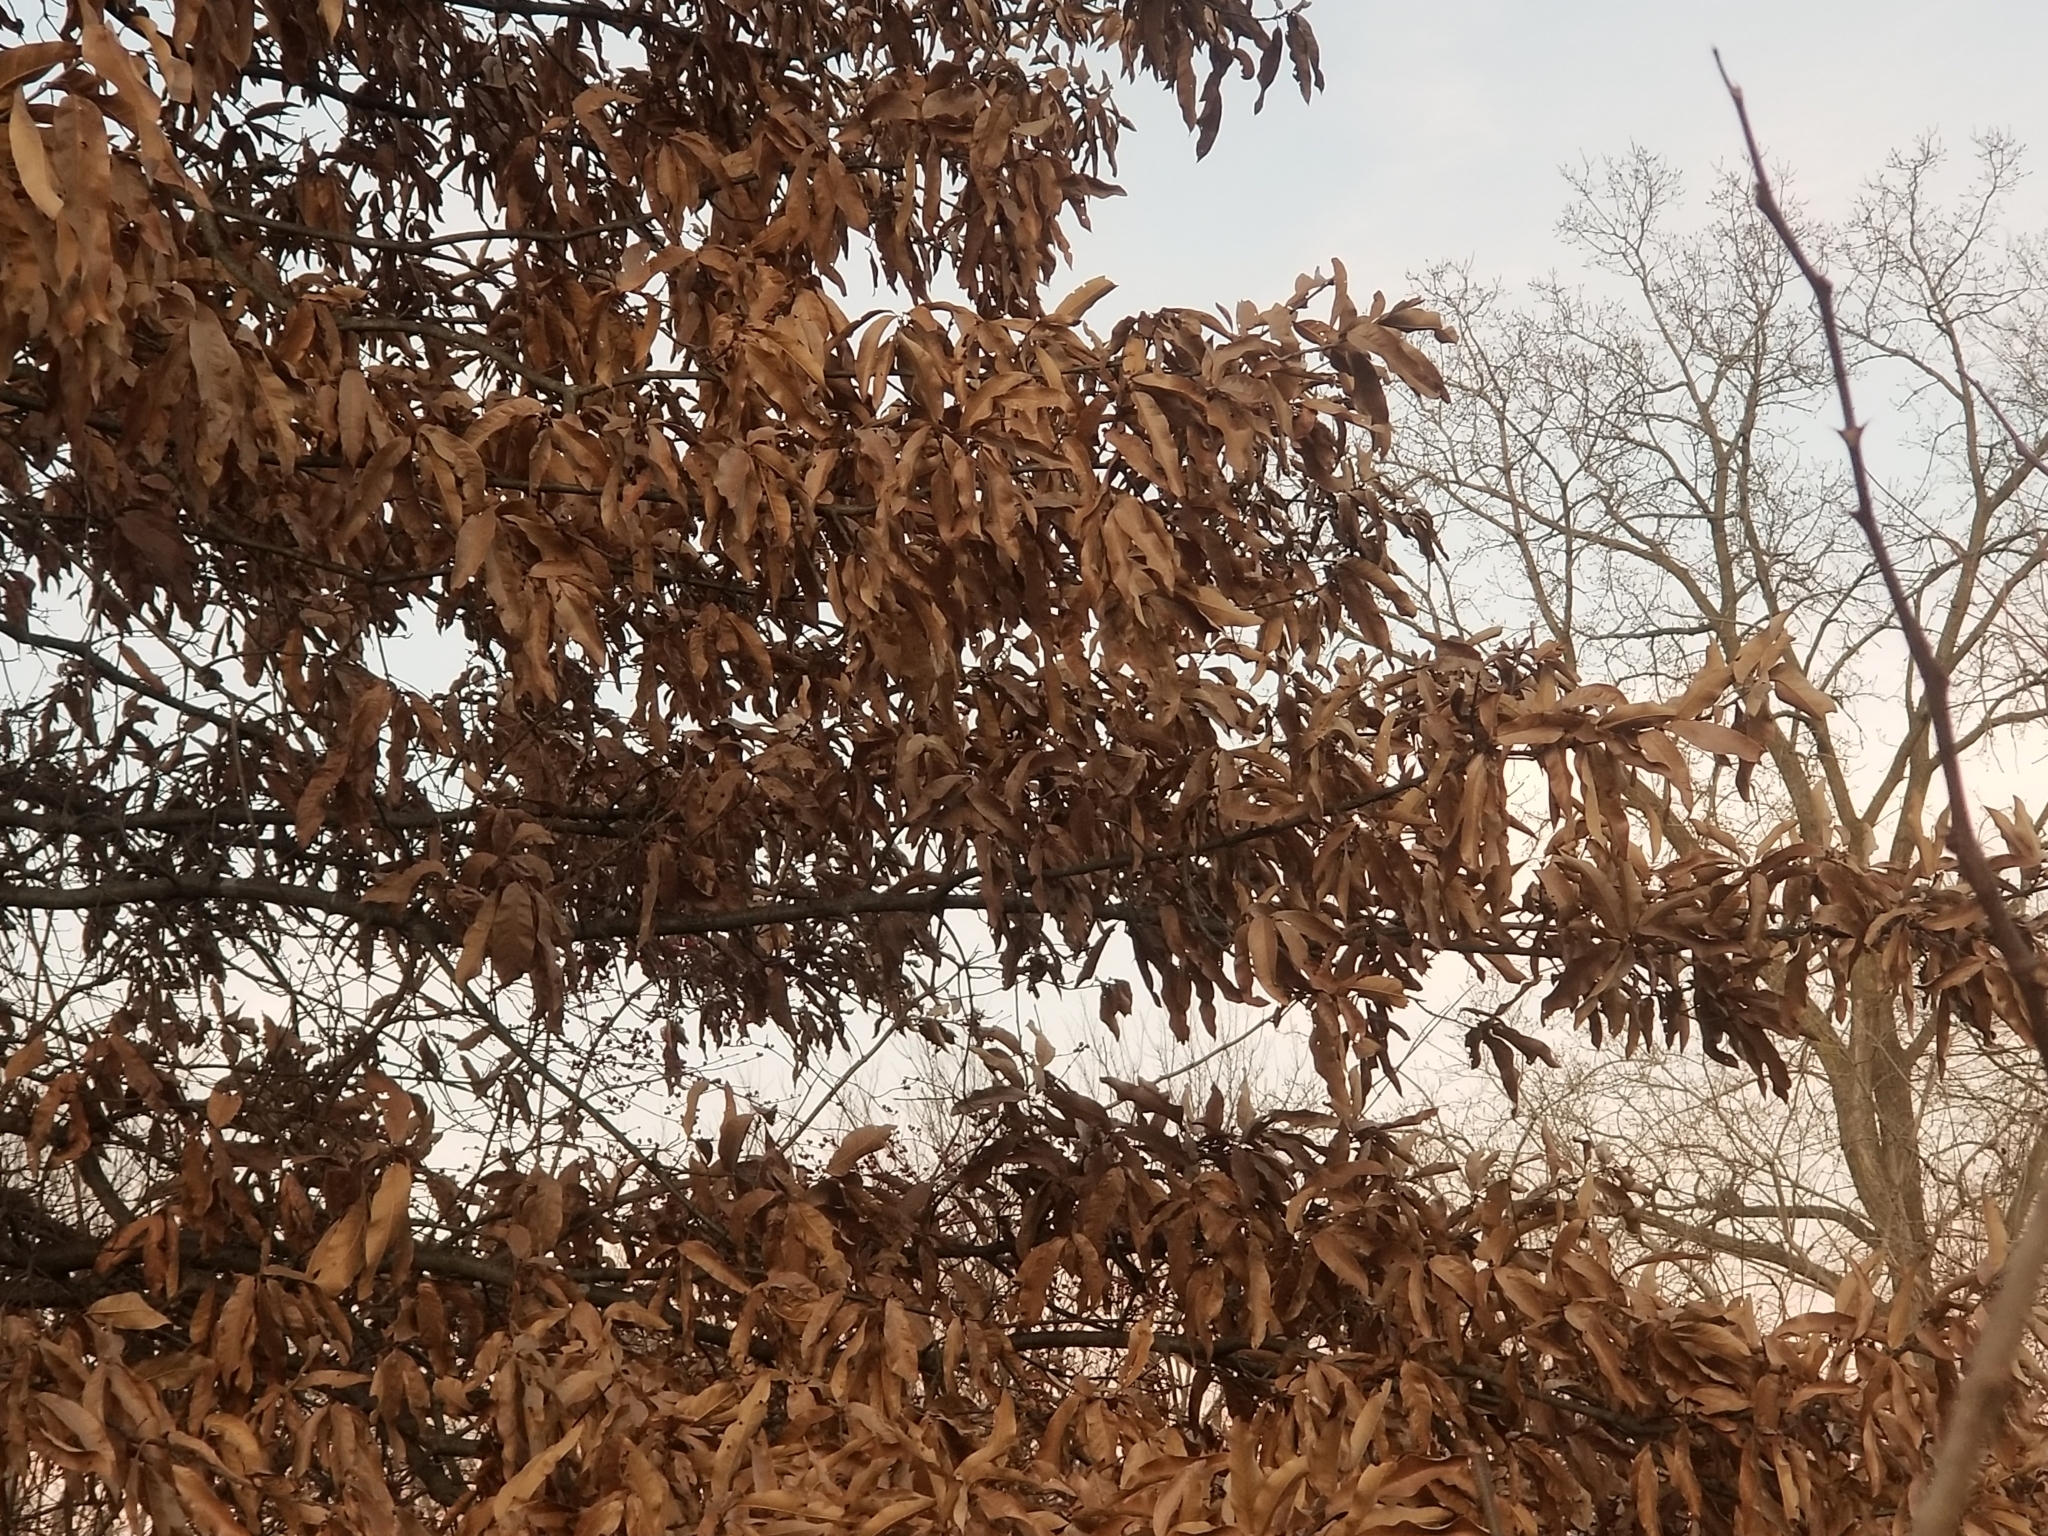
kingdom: Plantae
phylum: Tracheophyta
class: Magnoliopsida
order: Fagales
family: Fagaceae
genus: Quercus
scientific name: Quercus imbricaria
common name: Shingle oak
